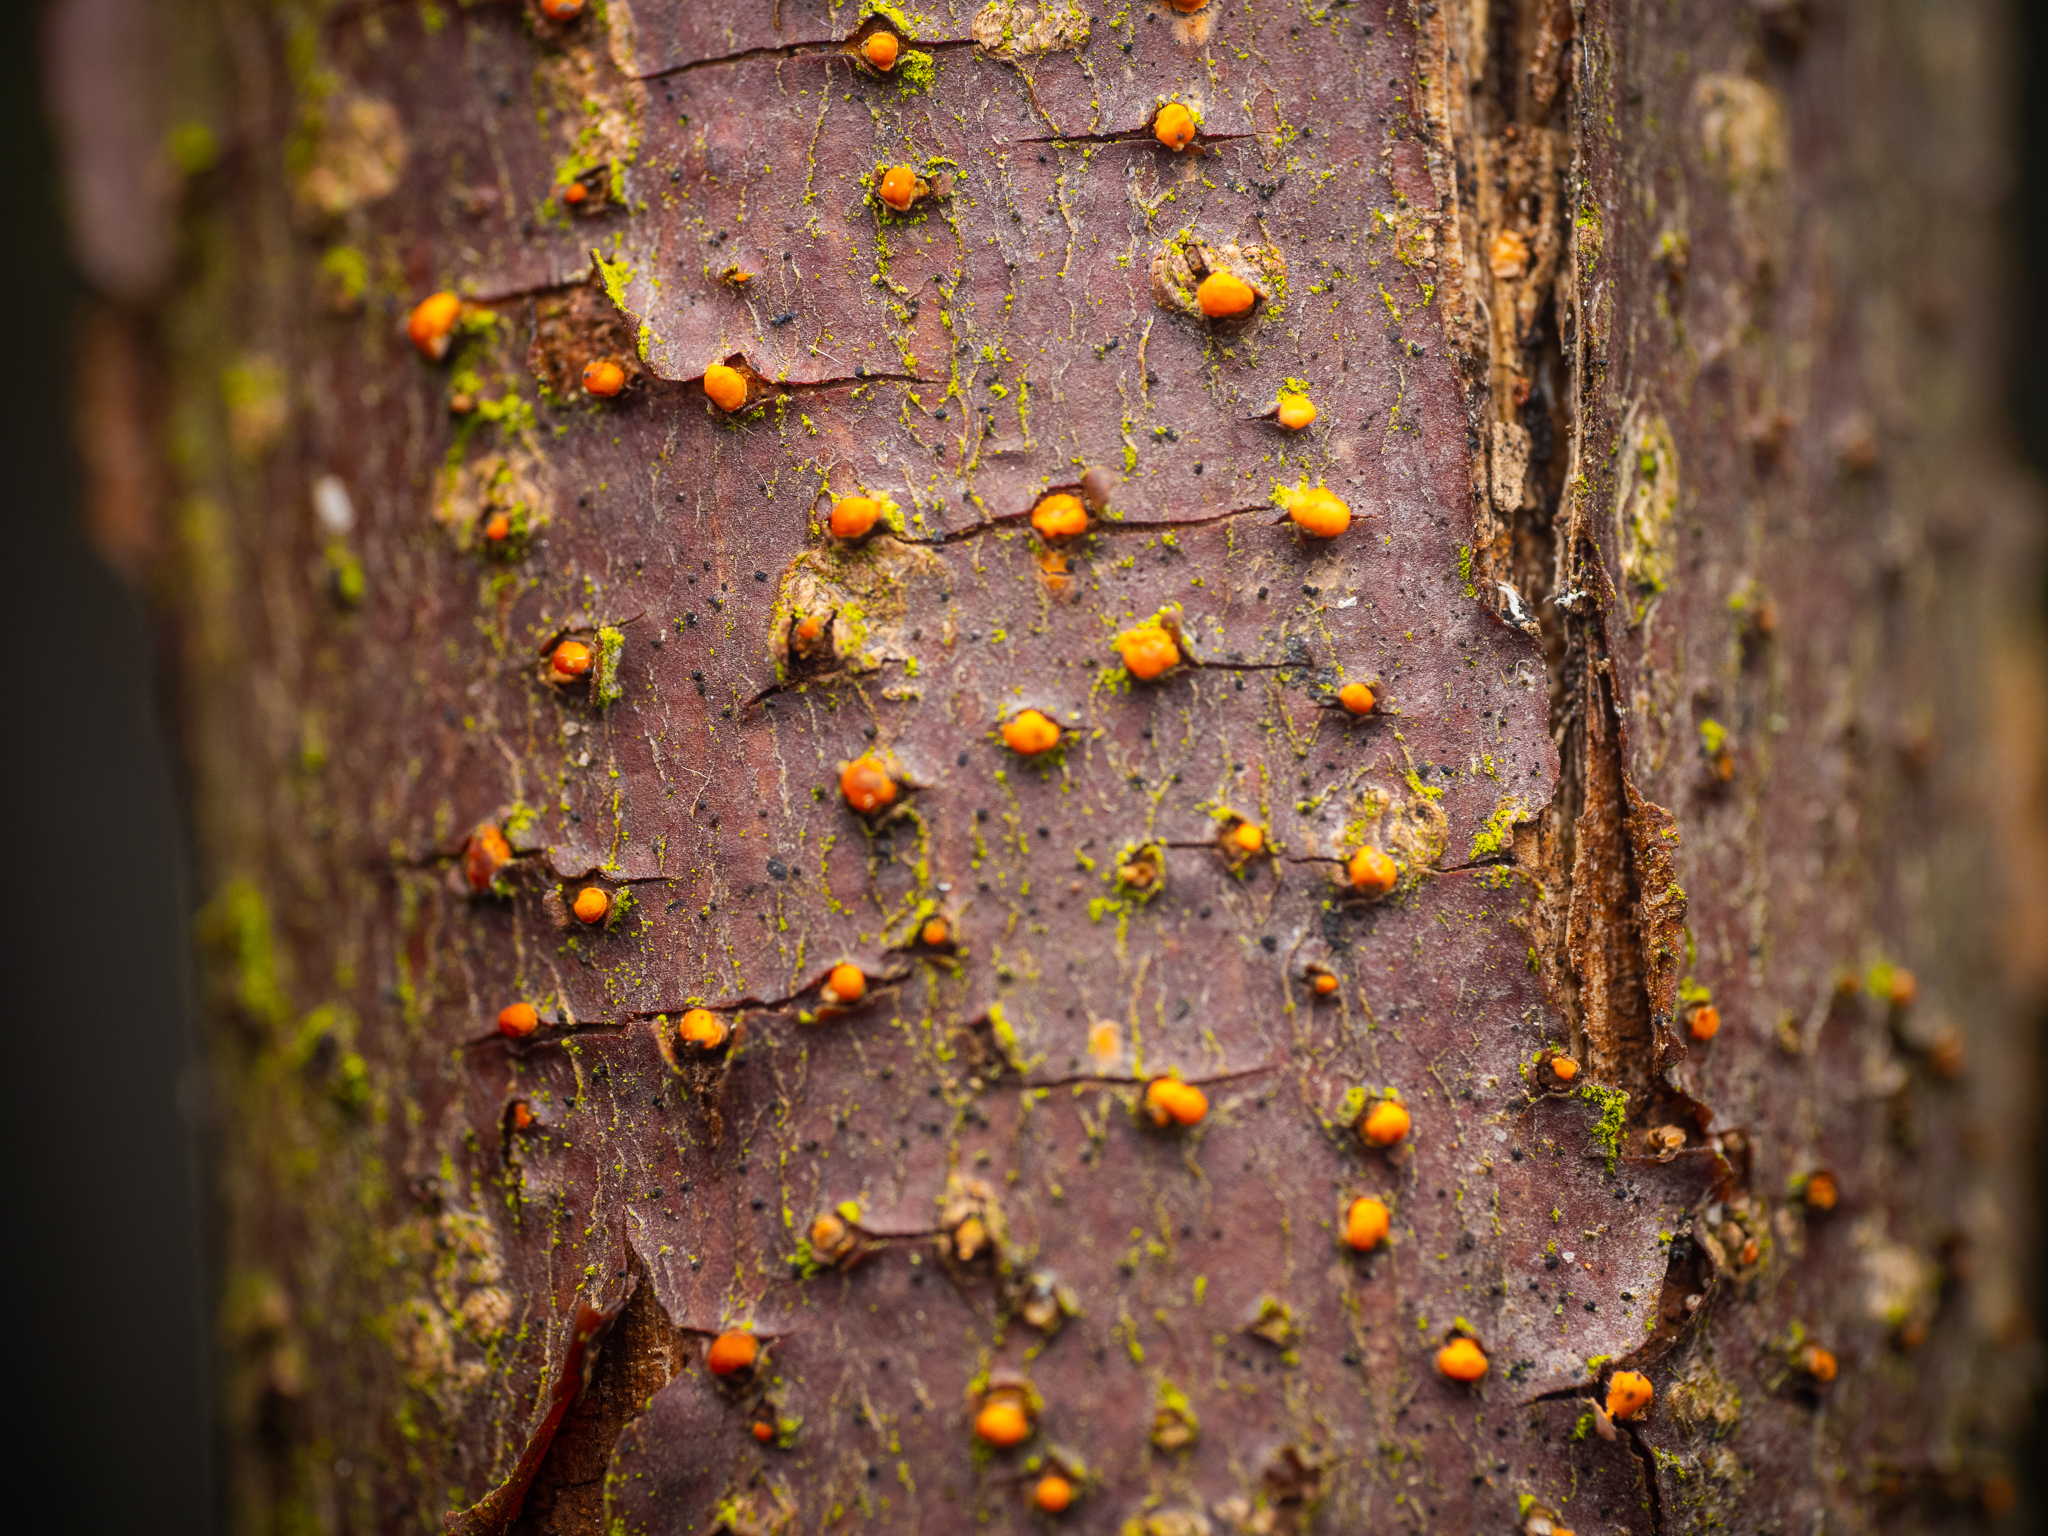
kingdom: Fungi
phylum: Ascomycota
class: Sordariomycetes
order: Hypocreales
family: Nectriaceae
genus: Nectria
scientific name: Nectria cinnabarina
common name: Coral spot
